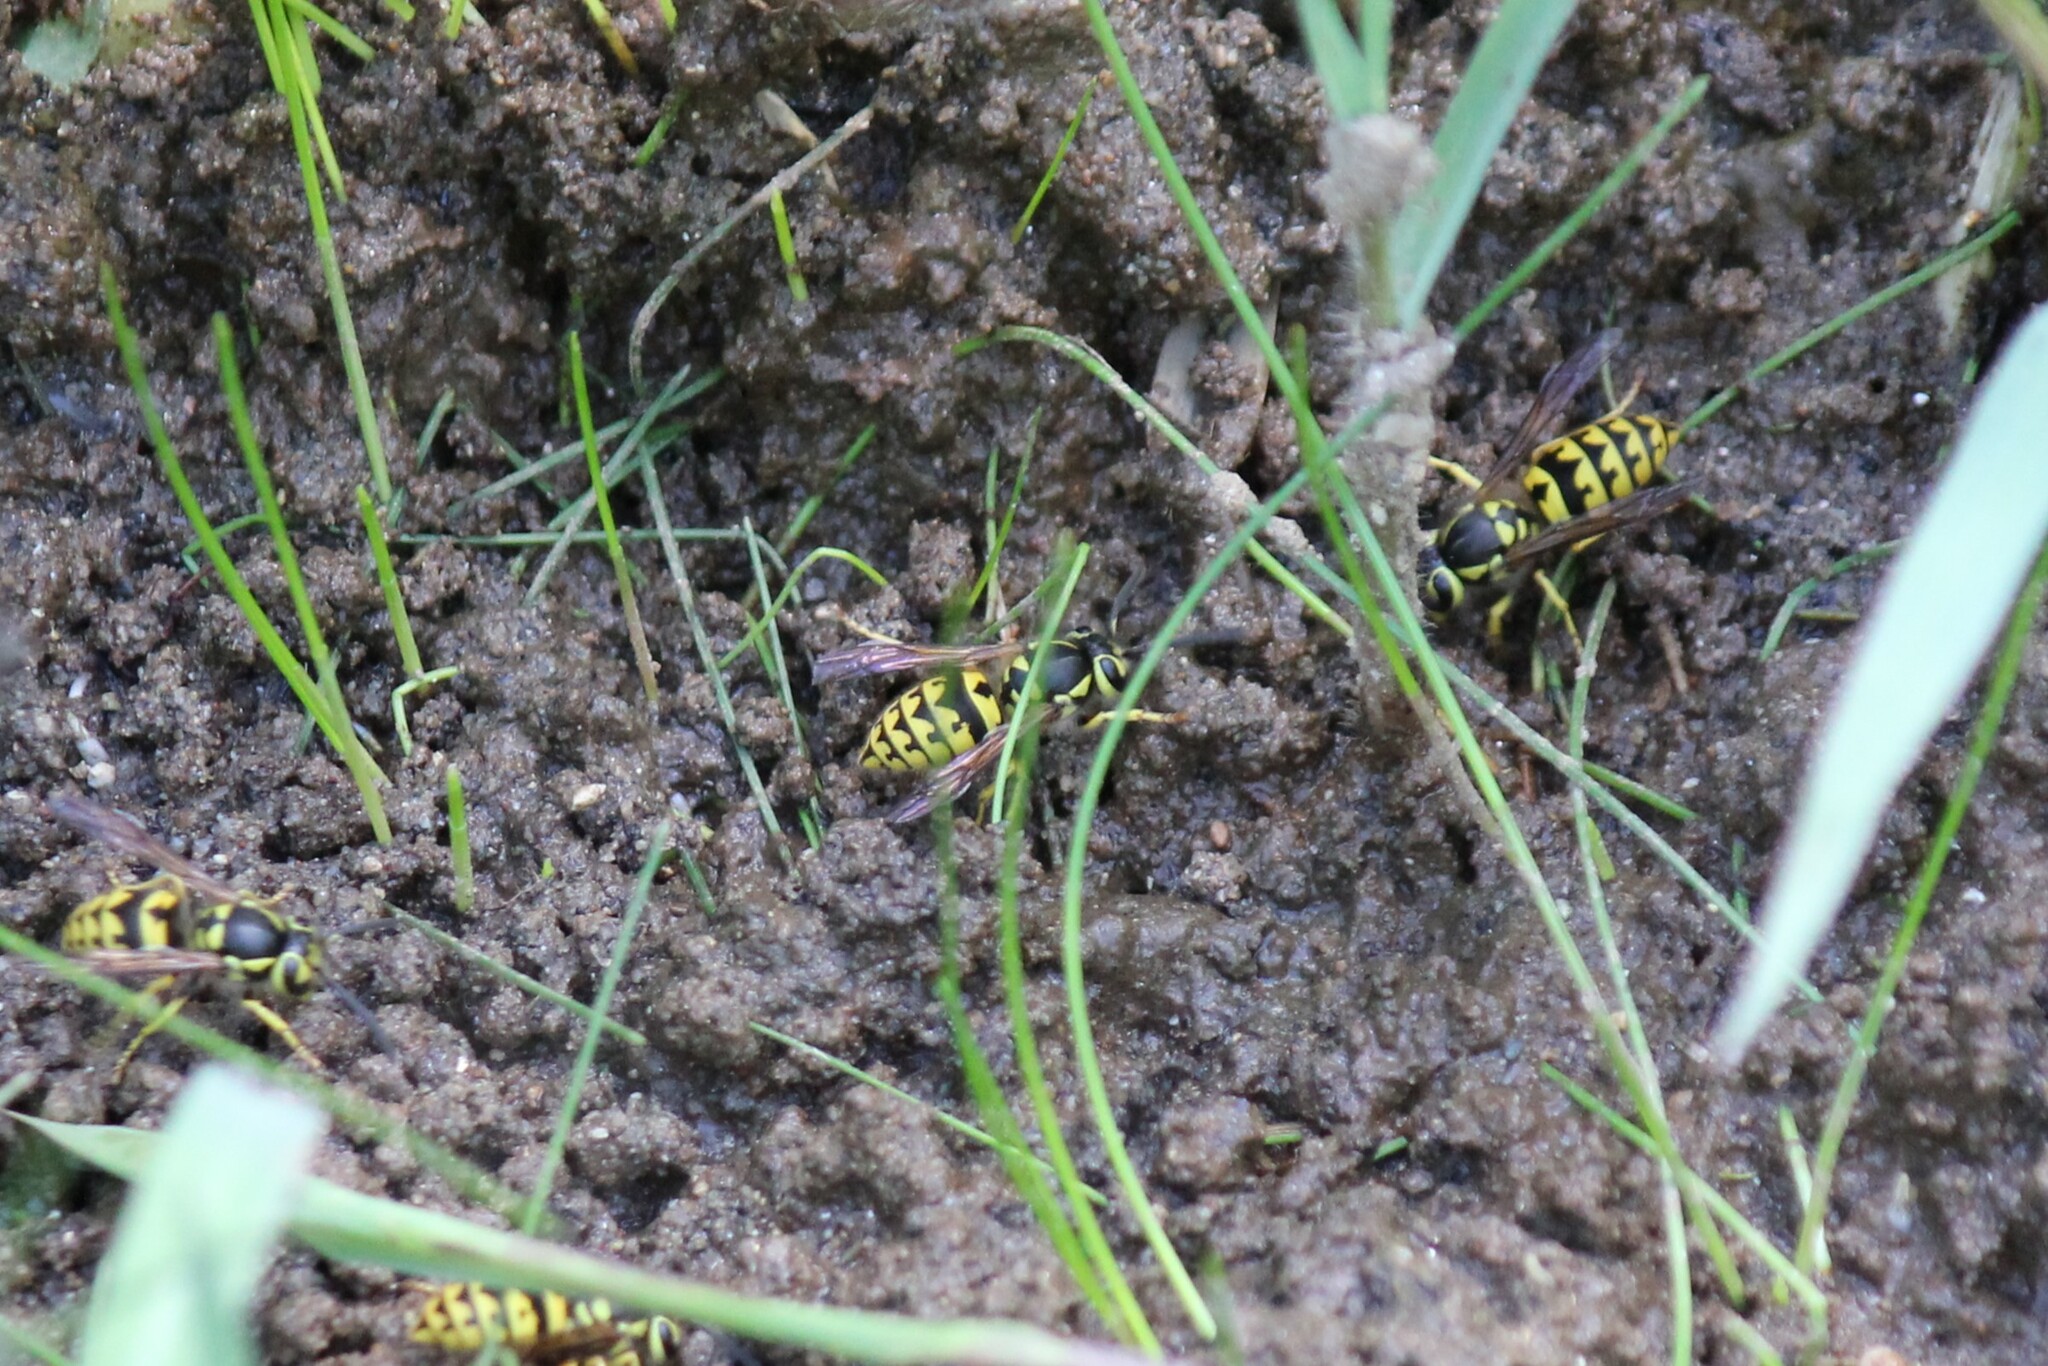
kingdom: Animalia
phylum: Arthropoda
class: Insecta
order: Hymenoptera
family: Vespidae
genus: Vespula
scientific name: Vespula pensylvanica
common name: Western yellowjacket
